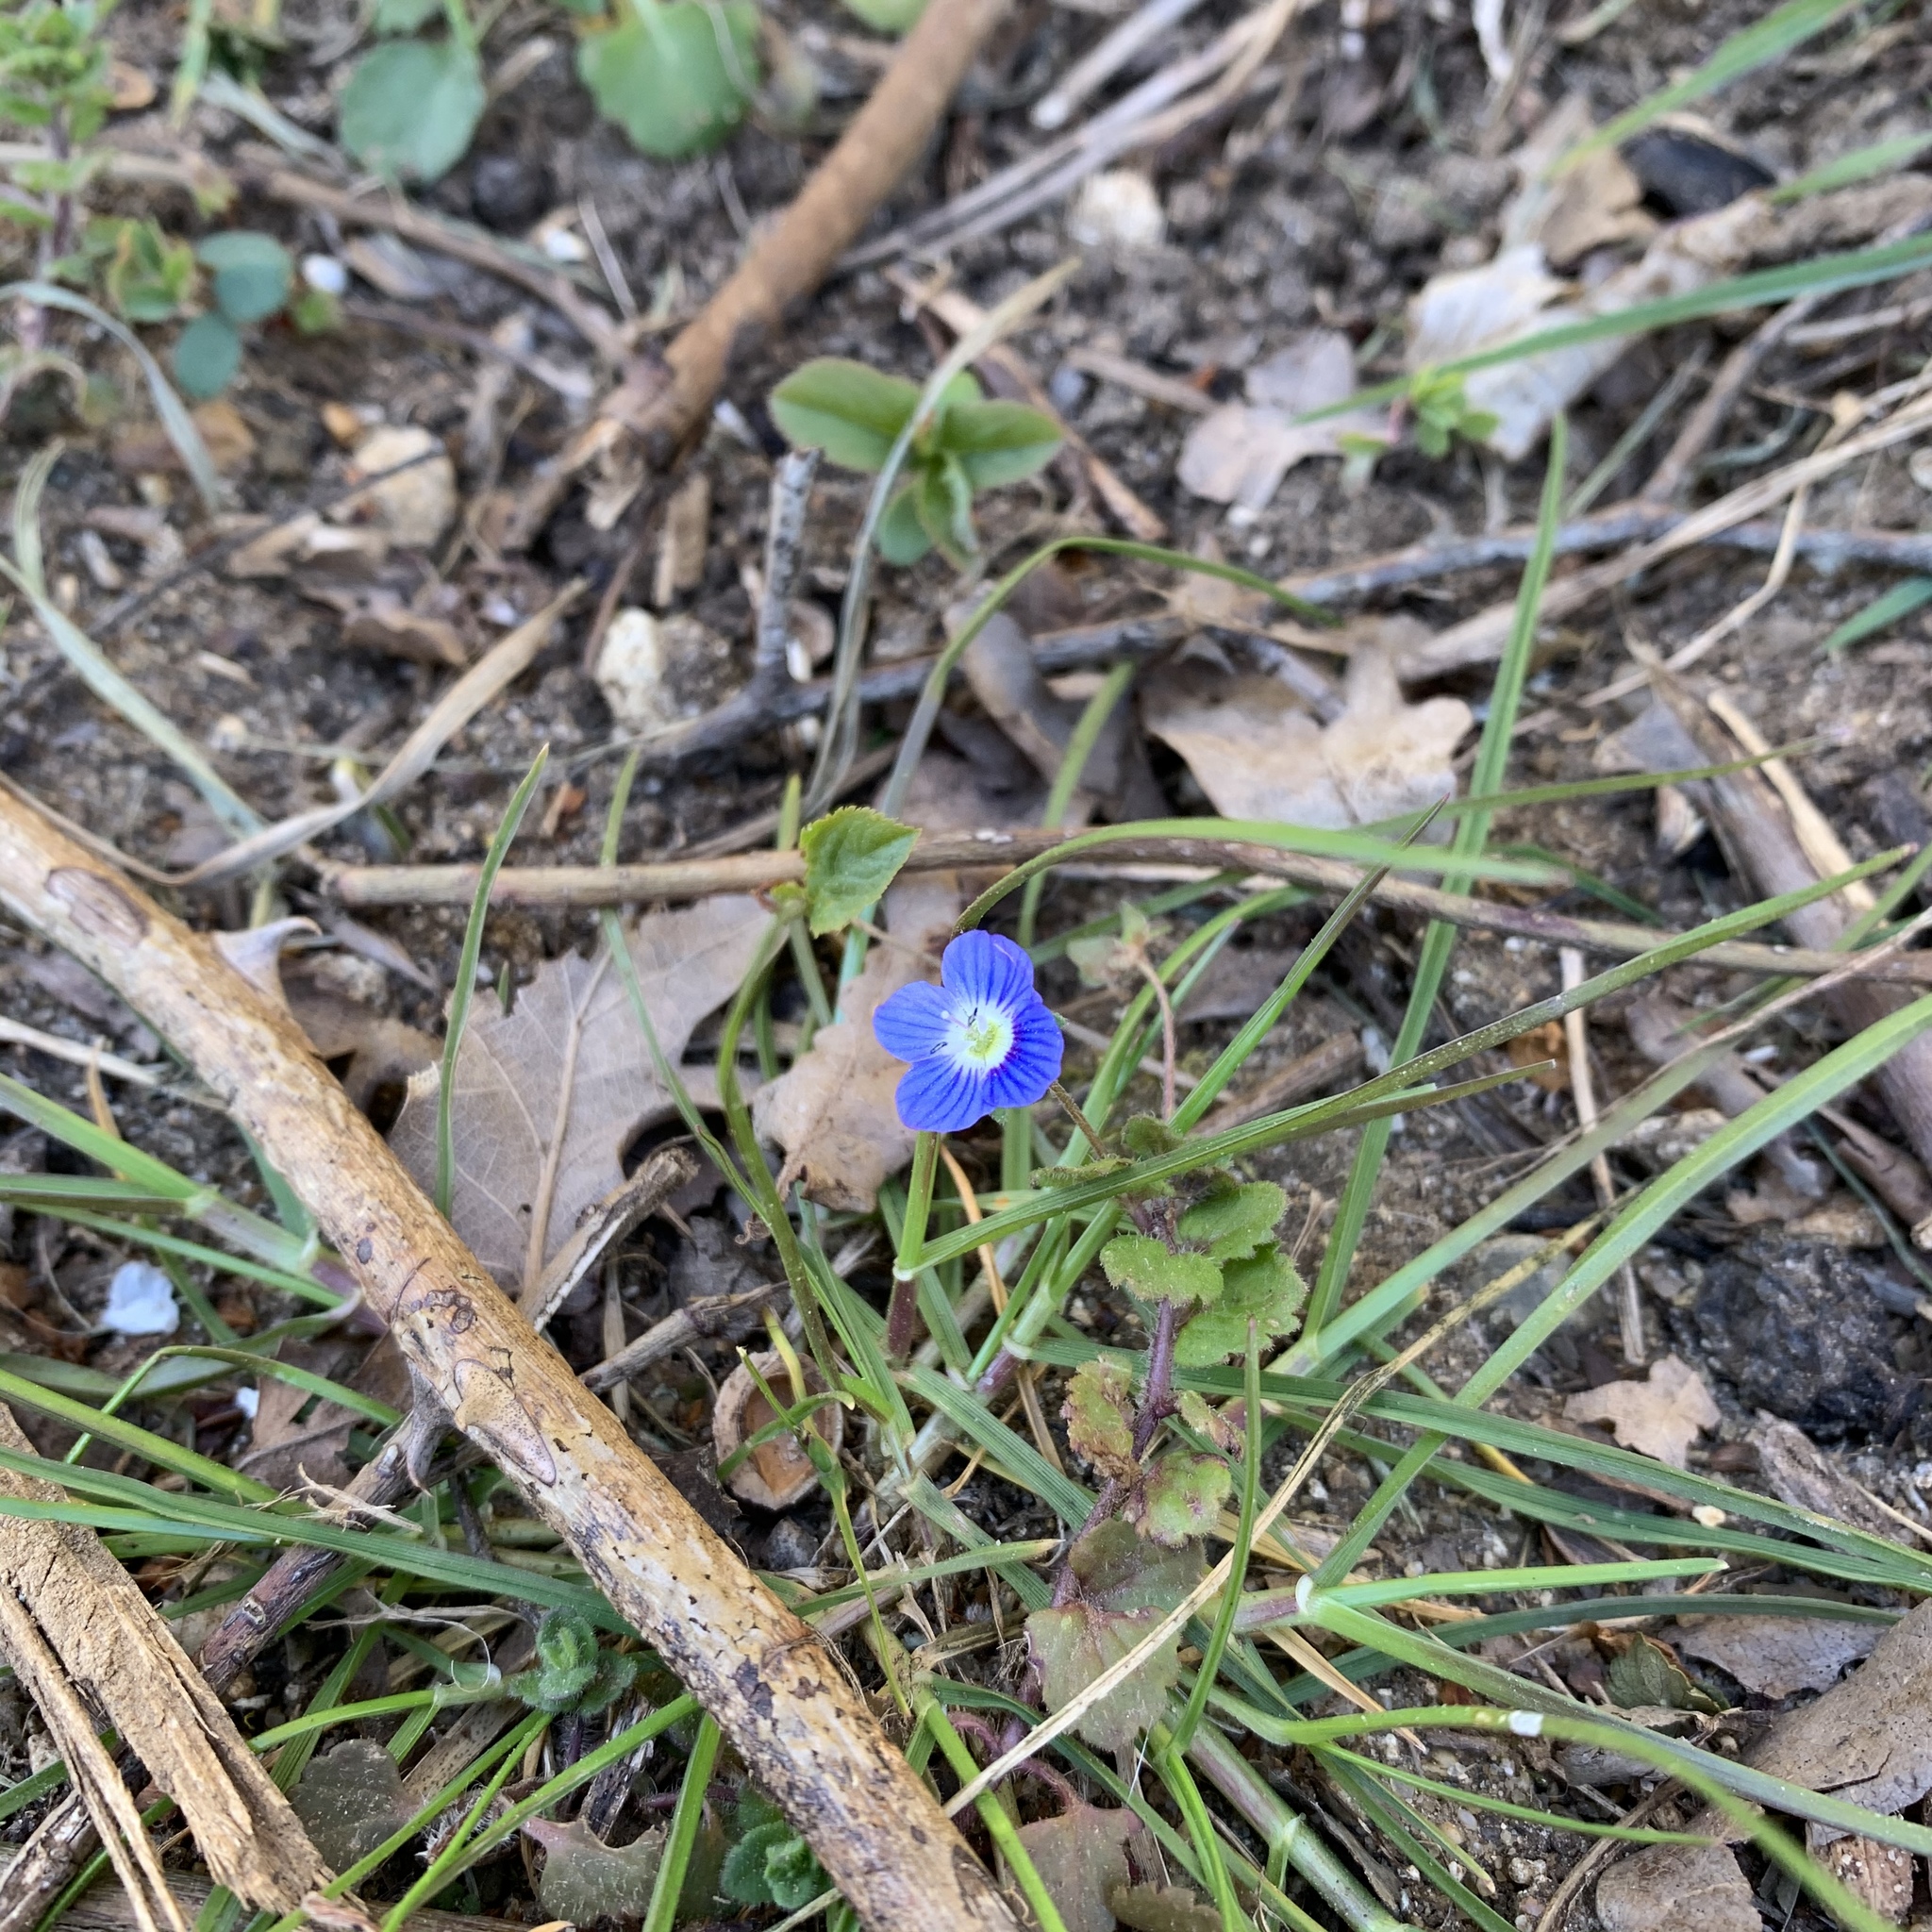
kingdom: Plantae
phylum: Tracheophyta
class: Magnoliopsida
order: Lamiales
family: Plantaginaceae
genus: Veronica
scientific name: Veronica persica
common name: Common field-speedwell
